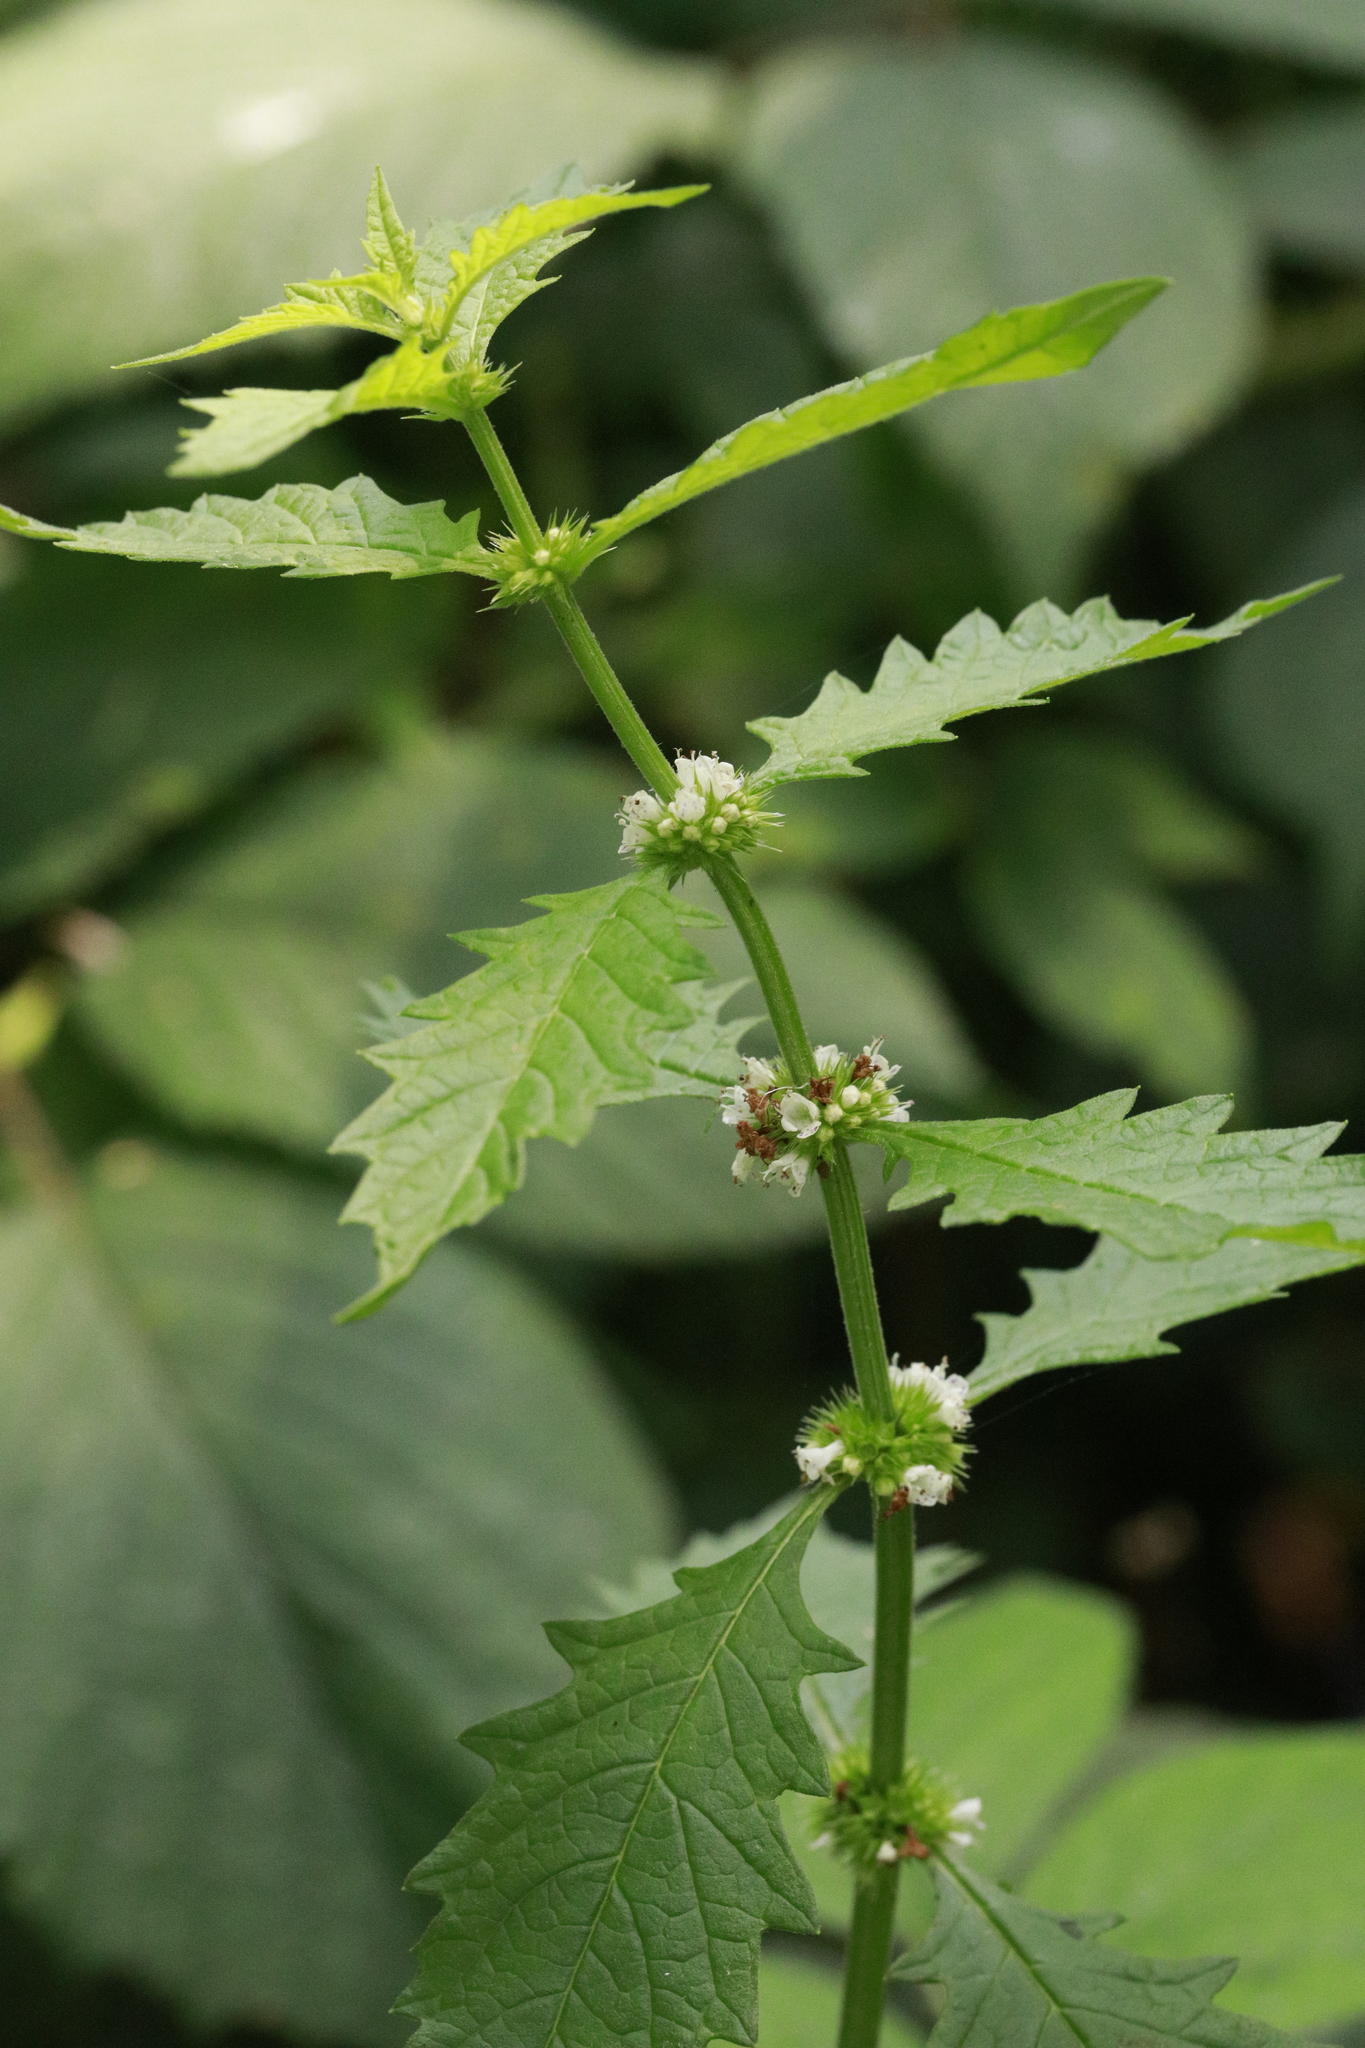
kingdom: Plantae
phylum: Tracheophyta
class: Magnoliopsida
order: Lamiales
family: Lamiaceae
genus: Lycopus
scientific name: Lycopus europaeus
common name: European bugleweed
